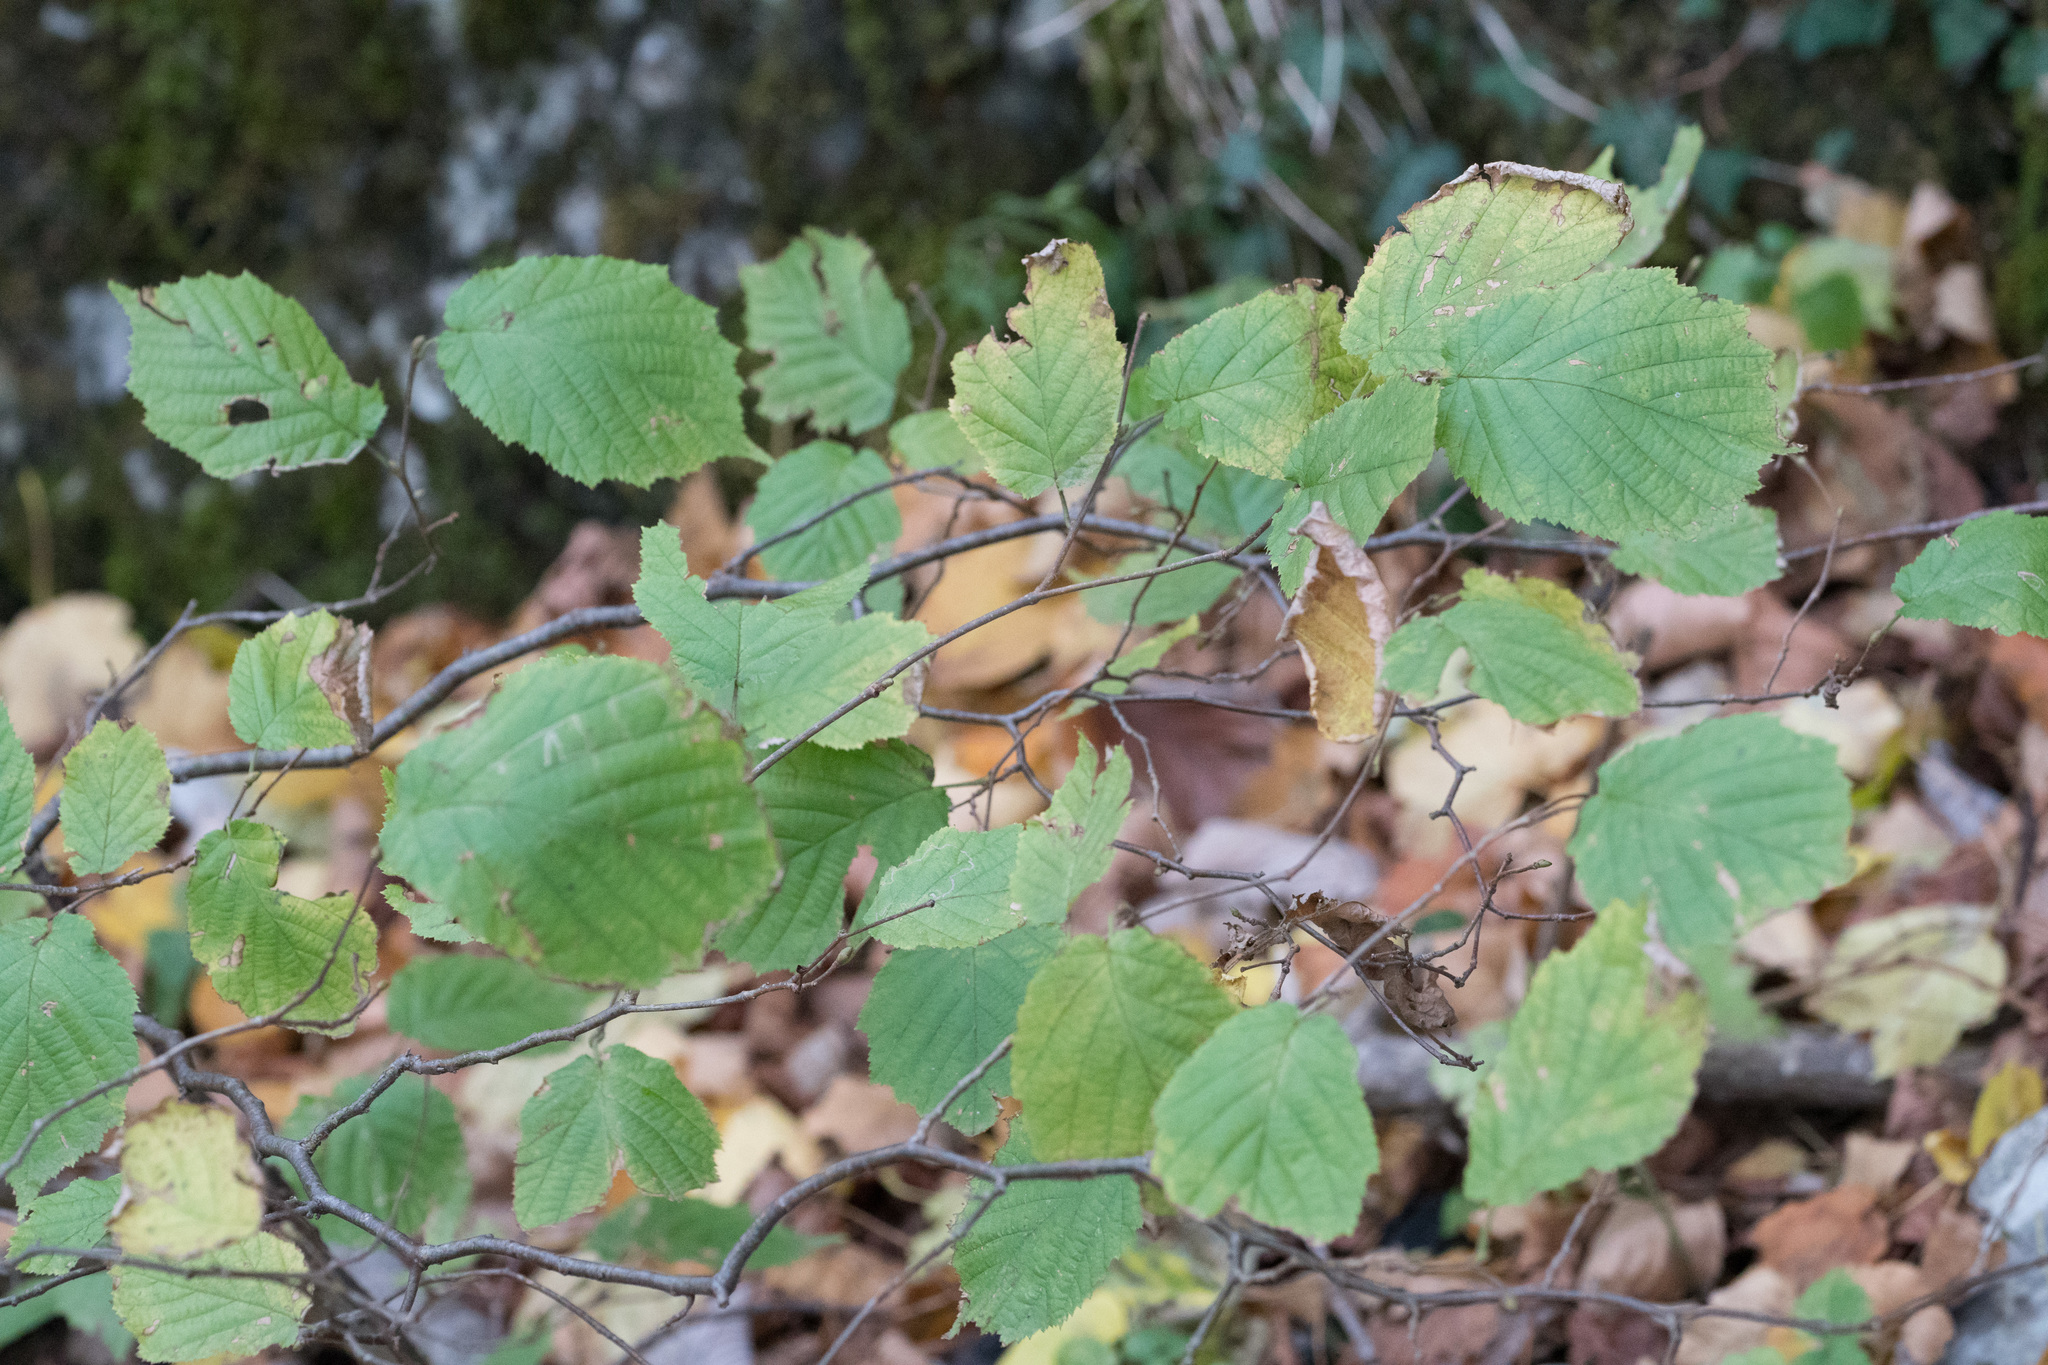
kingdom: Plantae
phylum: Tracheophyta
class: Magnoliopsida
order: Fagales
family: Betulaceae
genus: Corylus
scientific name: Corylus avellana
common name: European hazel
